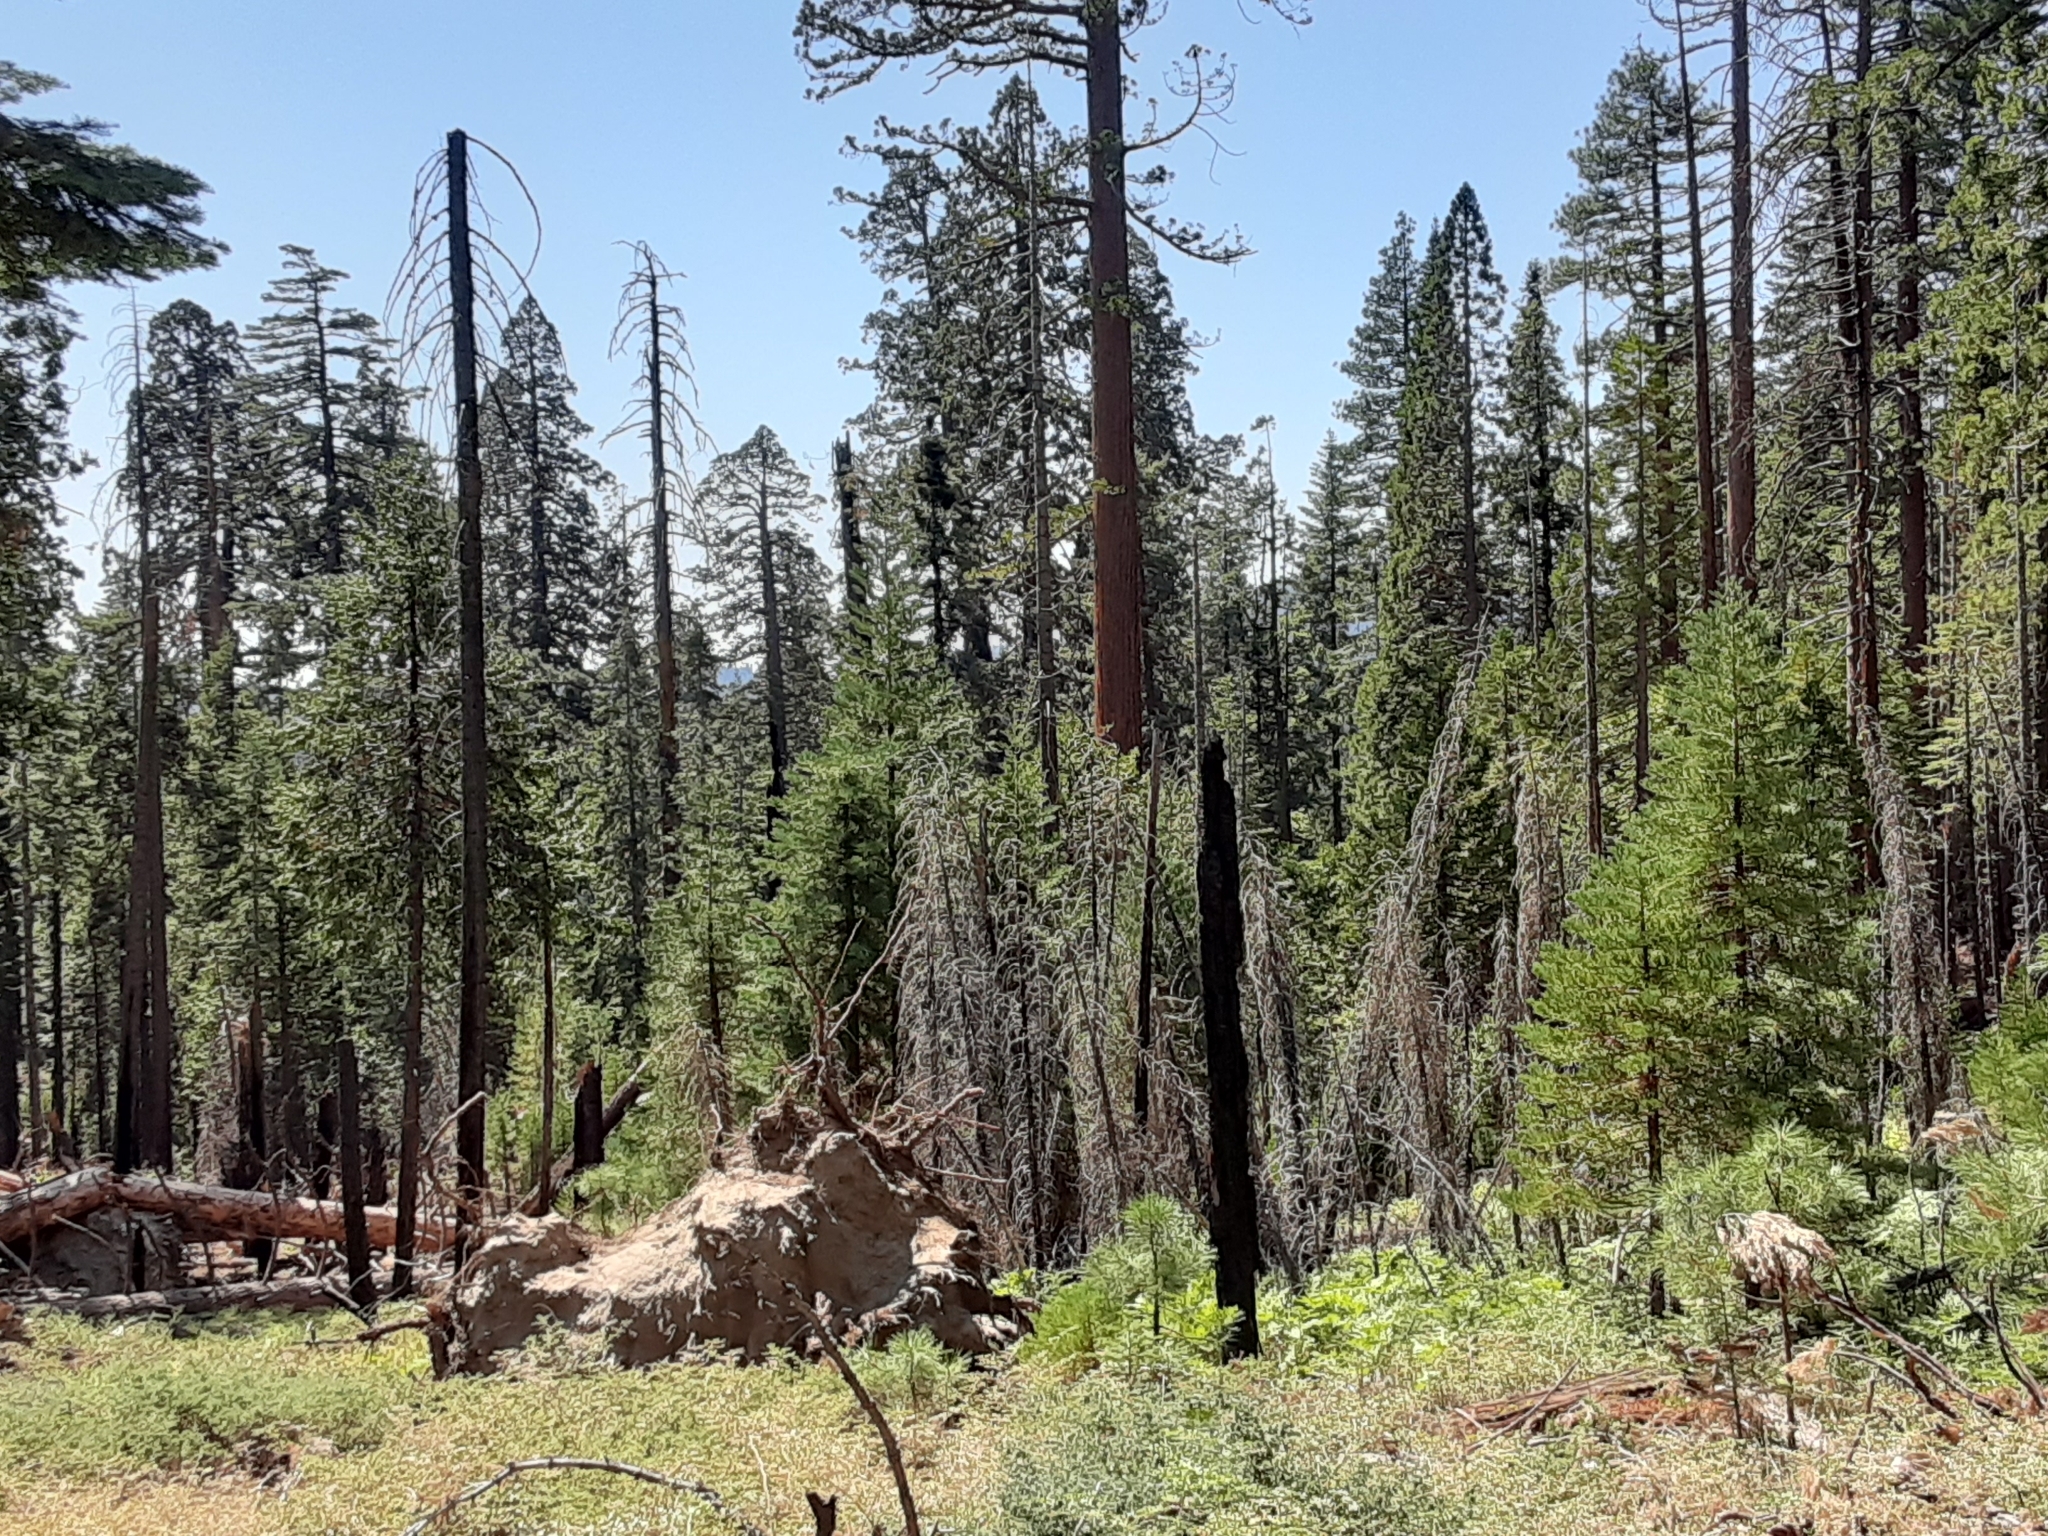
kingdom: Plantae
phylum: Tracheophyta
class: Pinopsida
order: Pinales
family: Cupressaceae
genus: Sequoiadendron
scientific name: Sequoiadendron giganteum
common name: Wellingtonia
